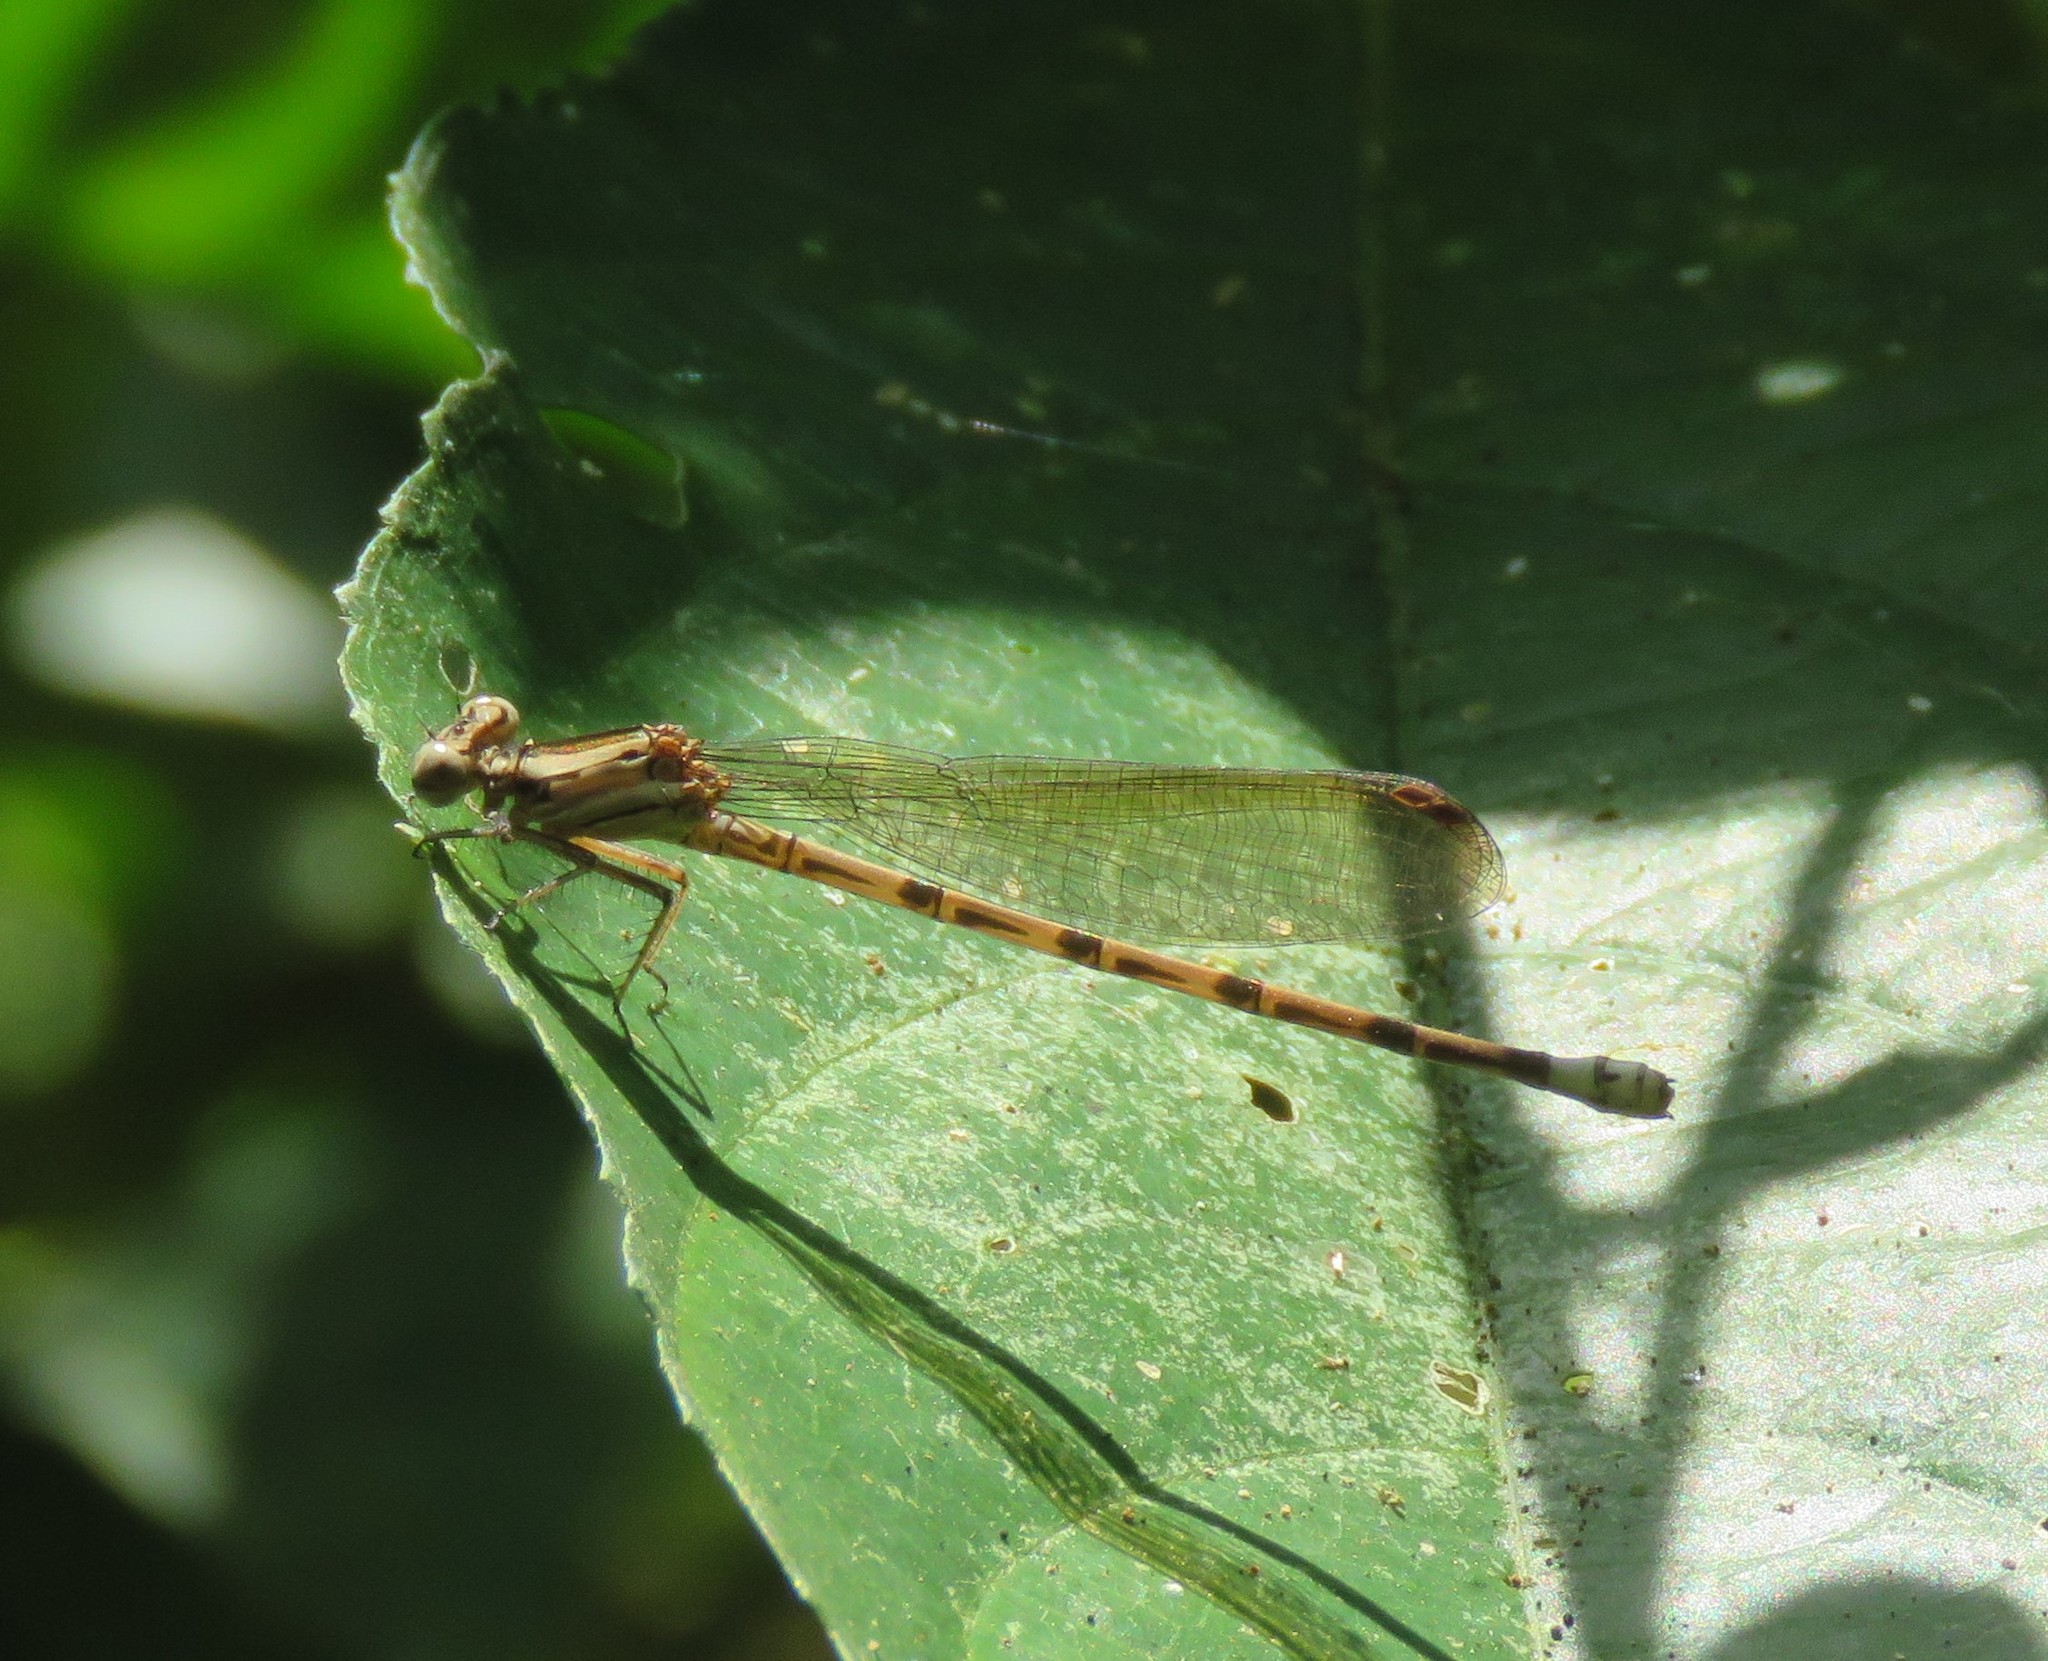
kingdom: Animalia
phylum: Arthropoda
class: Insecta
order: Odonata
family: Coenagrionidae
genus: Argia
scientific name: Argia elongata
